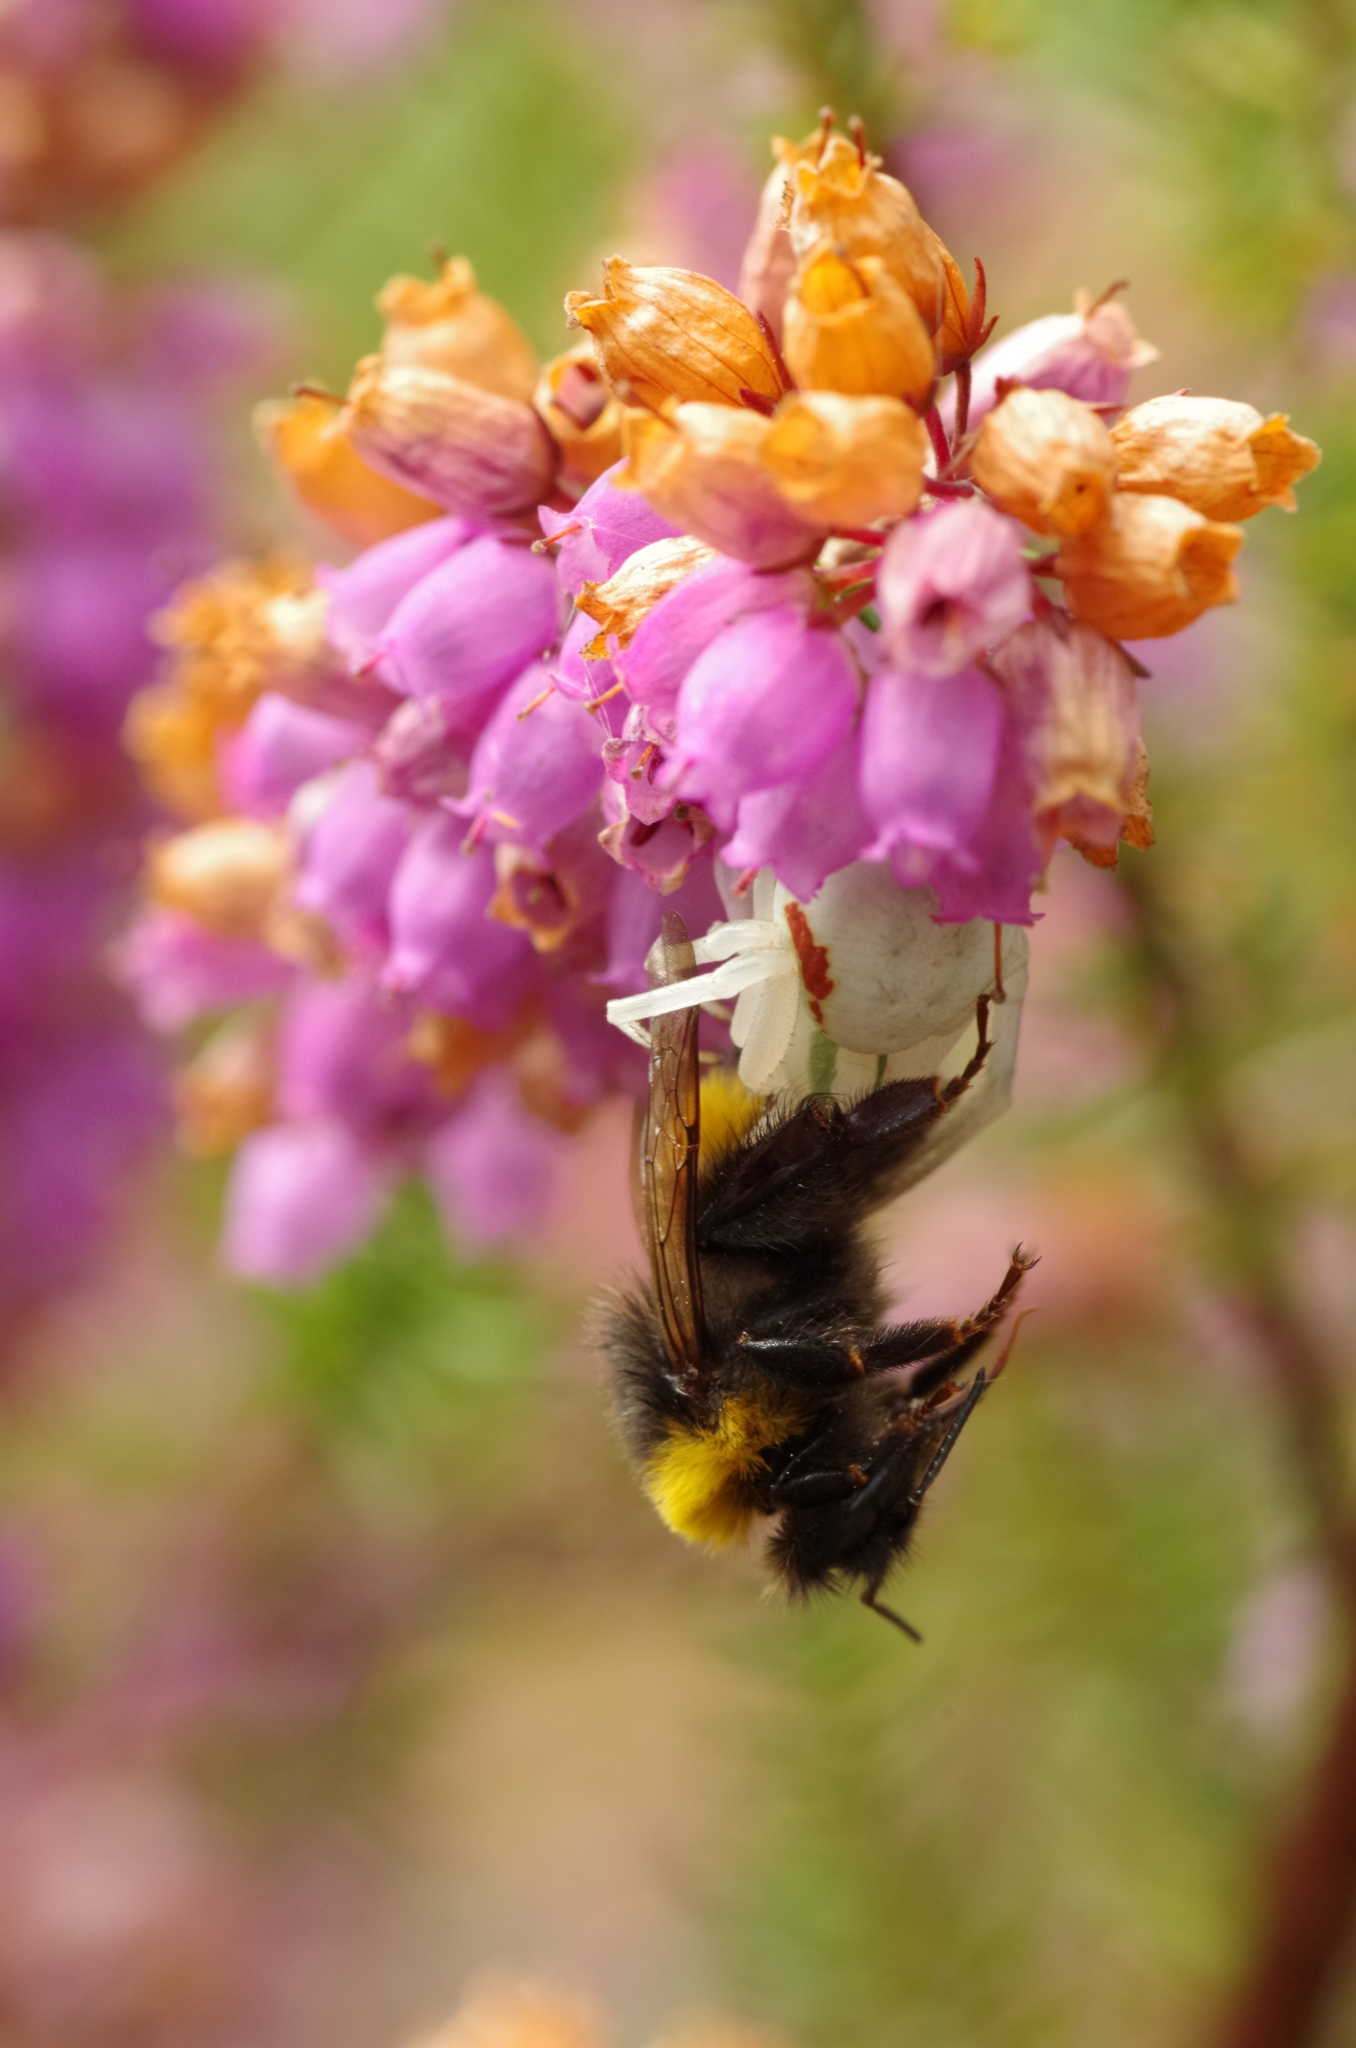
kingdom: Animalia
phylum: Arthropoda
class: Arachnida
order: Araneae
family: Thomisidae
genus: Misumena
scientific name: Misumena vatia
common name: Goldenrod crab spider
